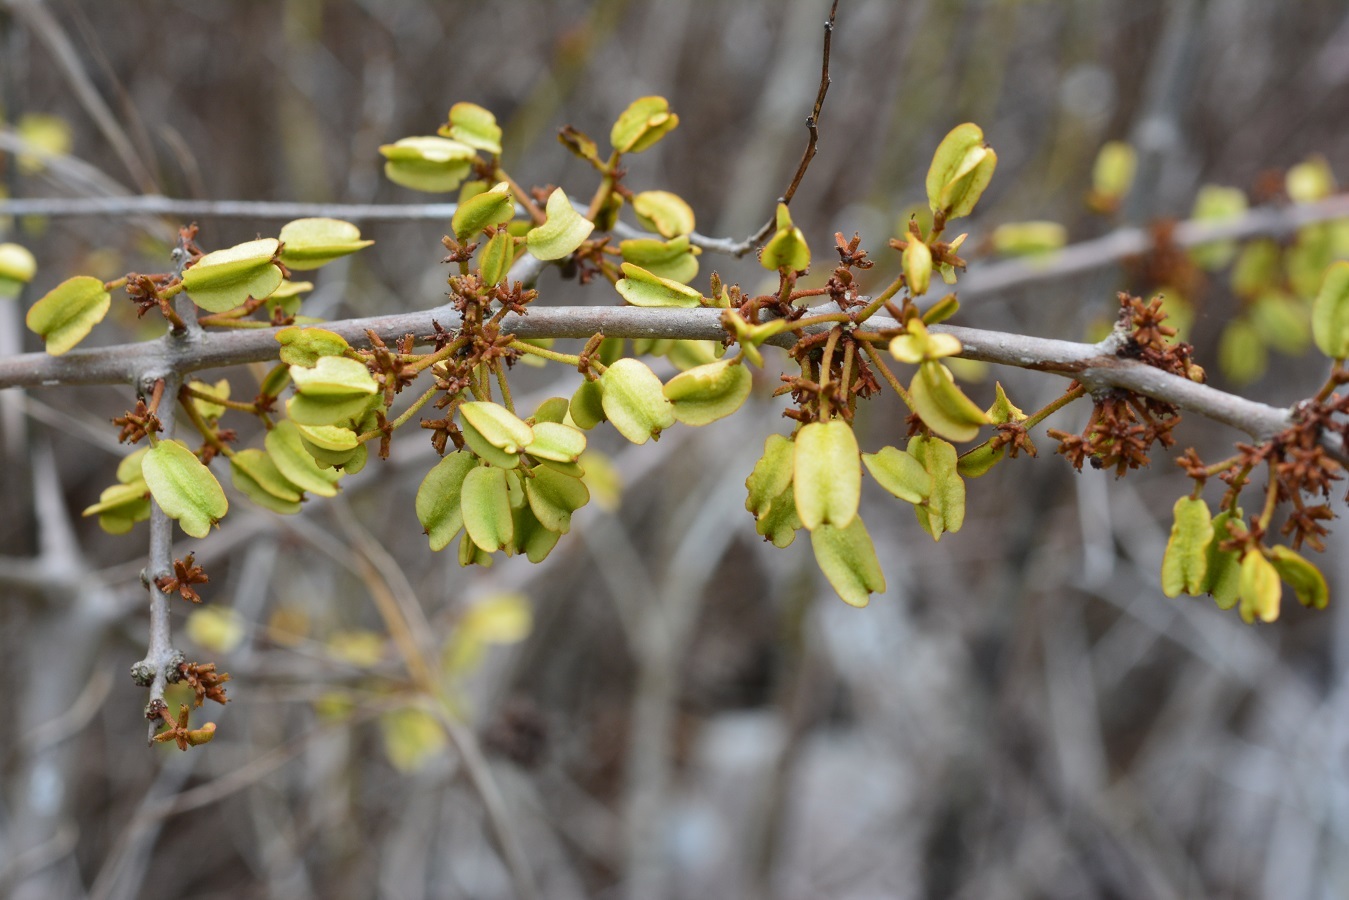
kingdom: Plantae
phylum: Tracheophyta
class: Magnoliopsida
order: Fabales
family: Fabaceae
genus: Piscidia
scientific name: Piscidia carthagenensis
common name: Stinkwood
